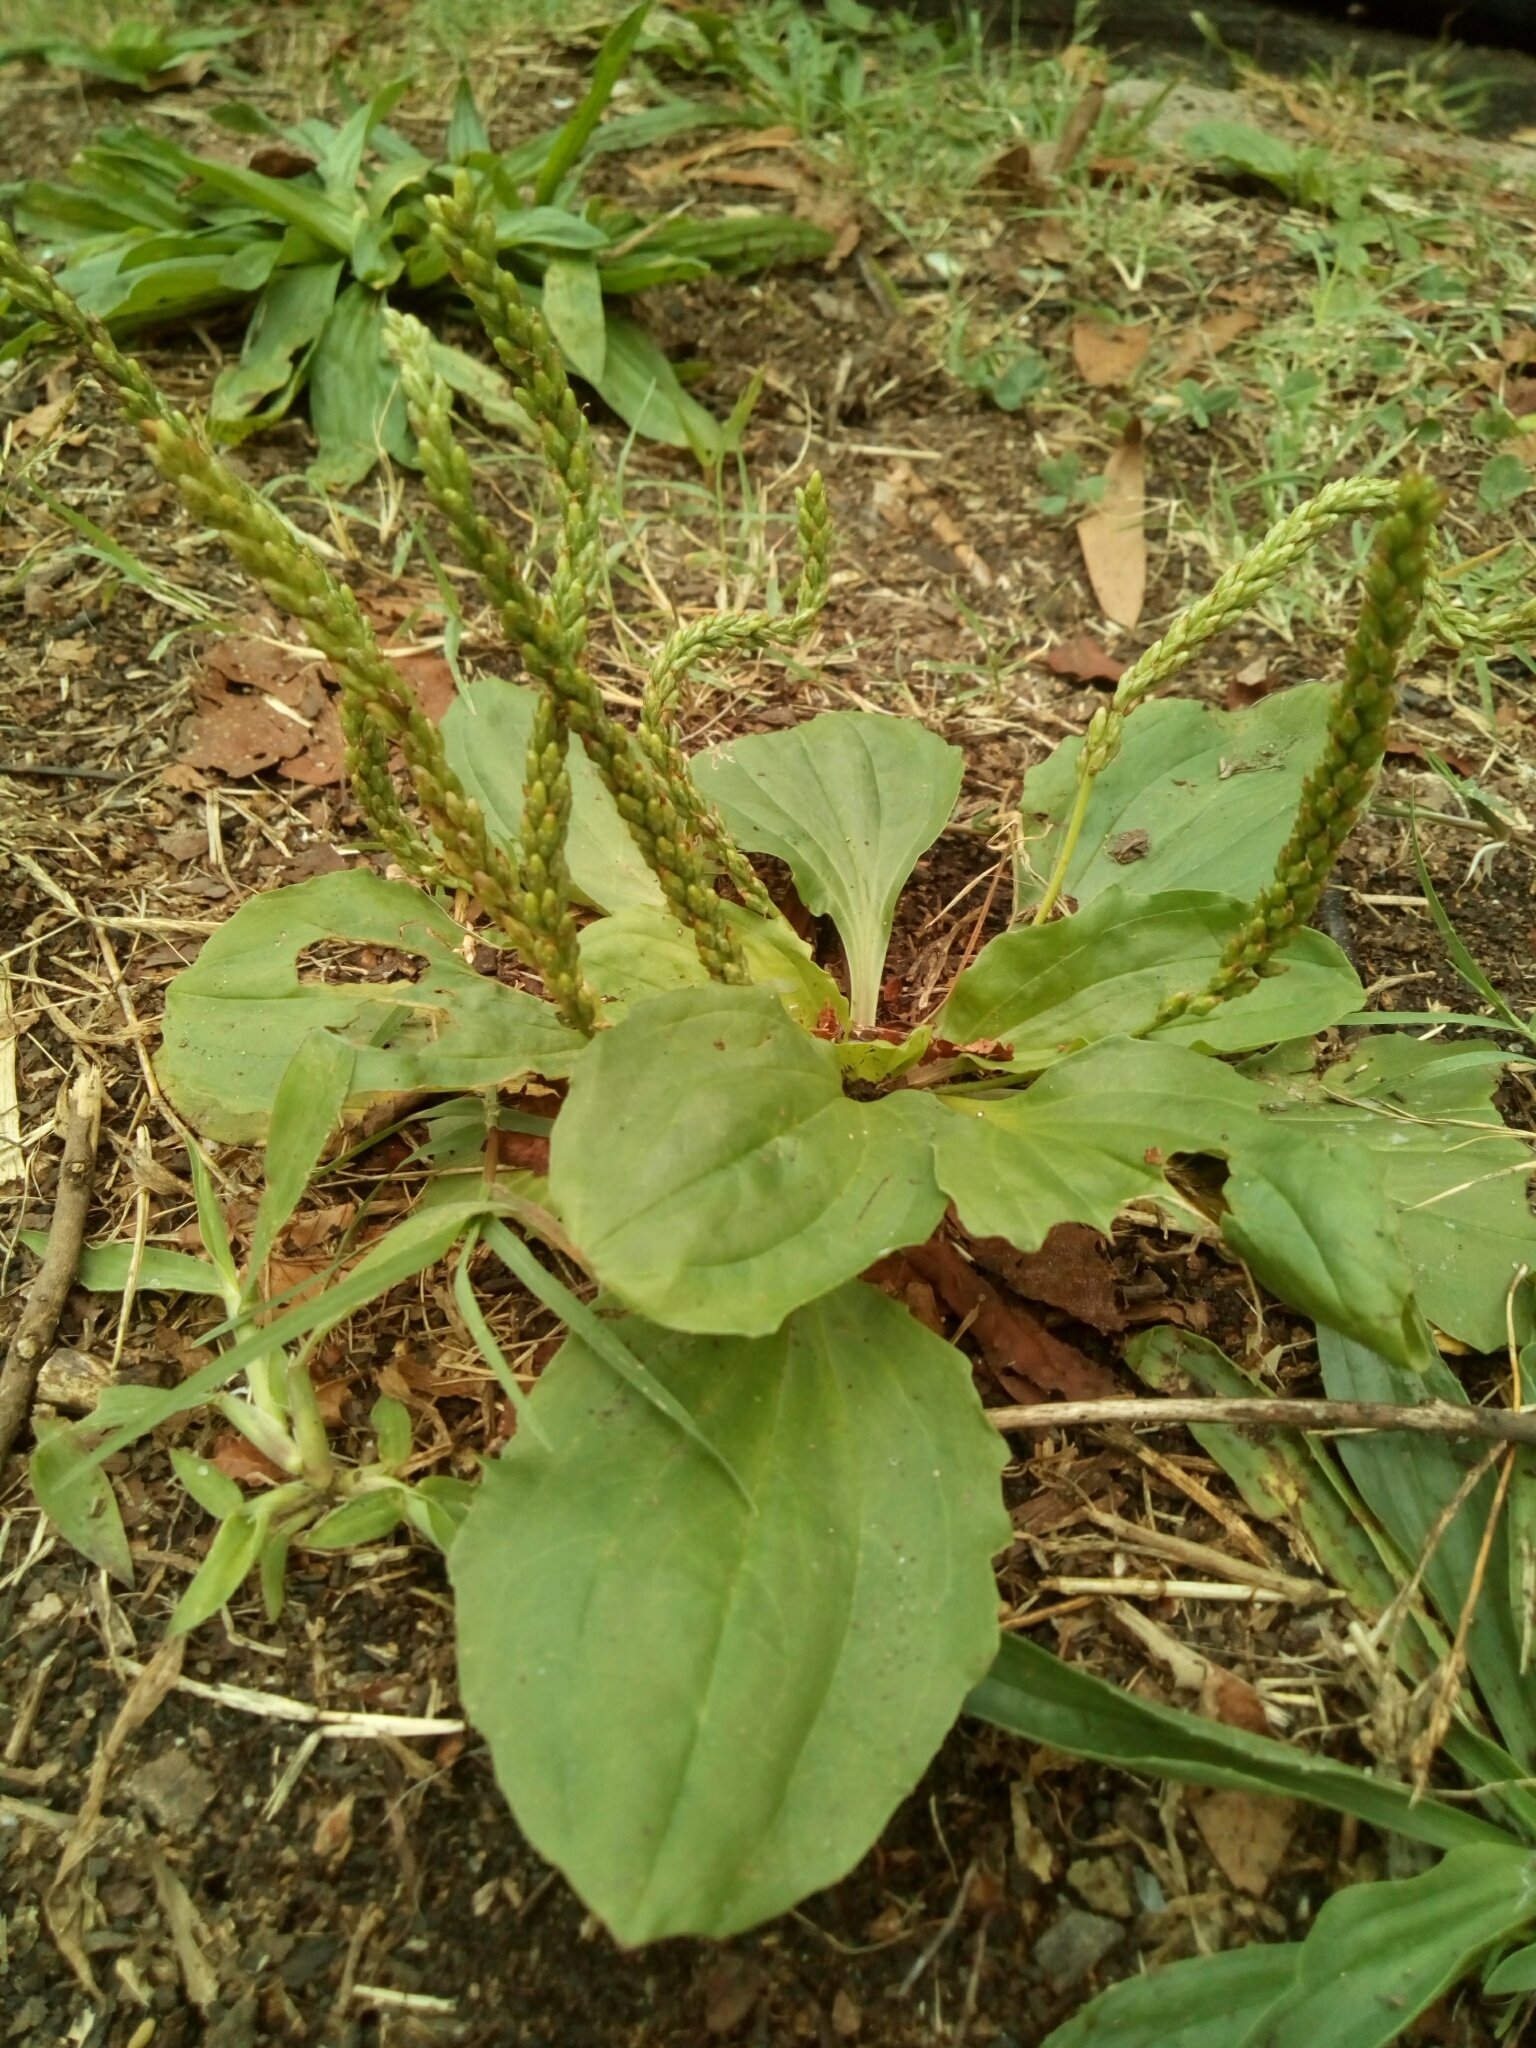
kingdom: Plantae
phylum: Tracheophyta
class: Magnoliopsida
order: Lamiales
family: Plantaginaceae
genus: Plantago
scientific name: Plantago major
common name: Common plantain
